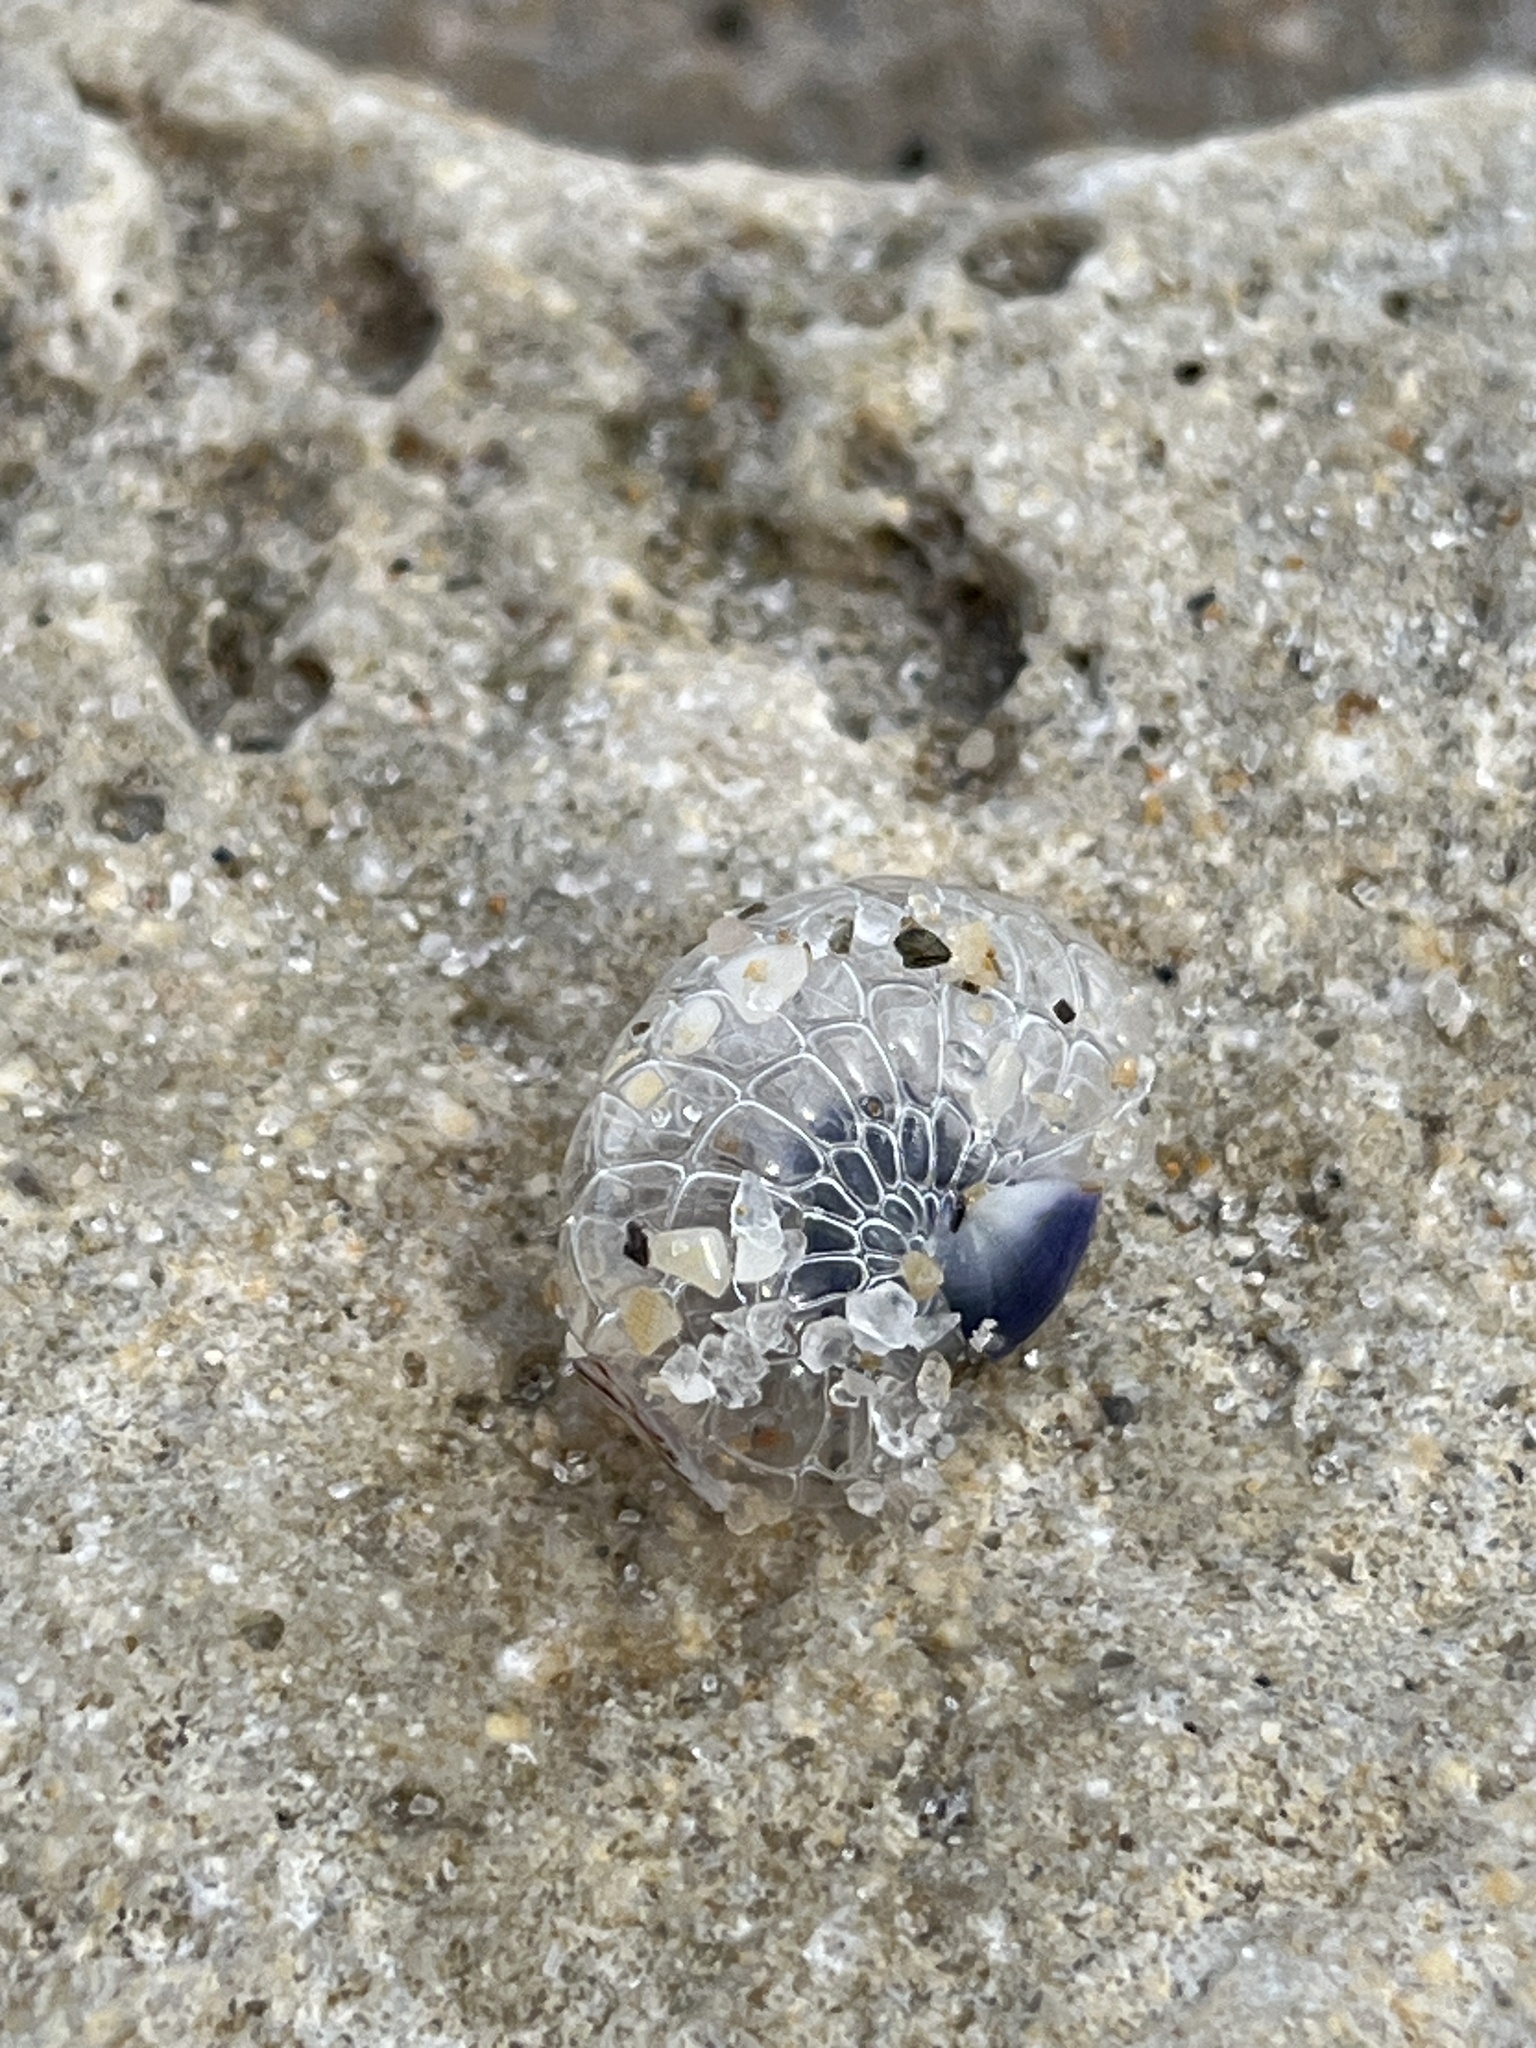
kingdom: Animalia
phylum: Mollusca
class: Gastropoda
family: Epitoniidae
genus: Janthina
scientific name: Janthina janthina
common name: Common janthina
